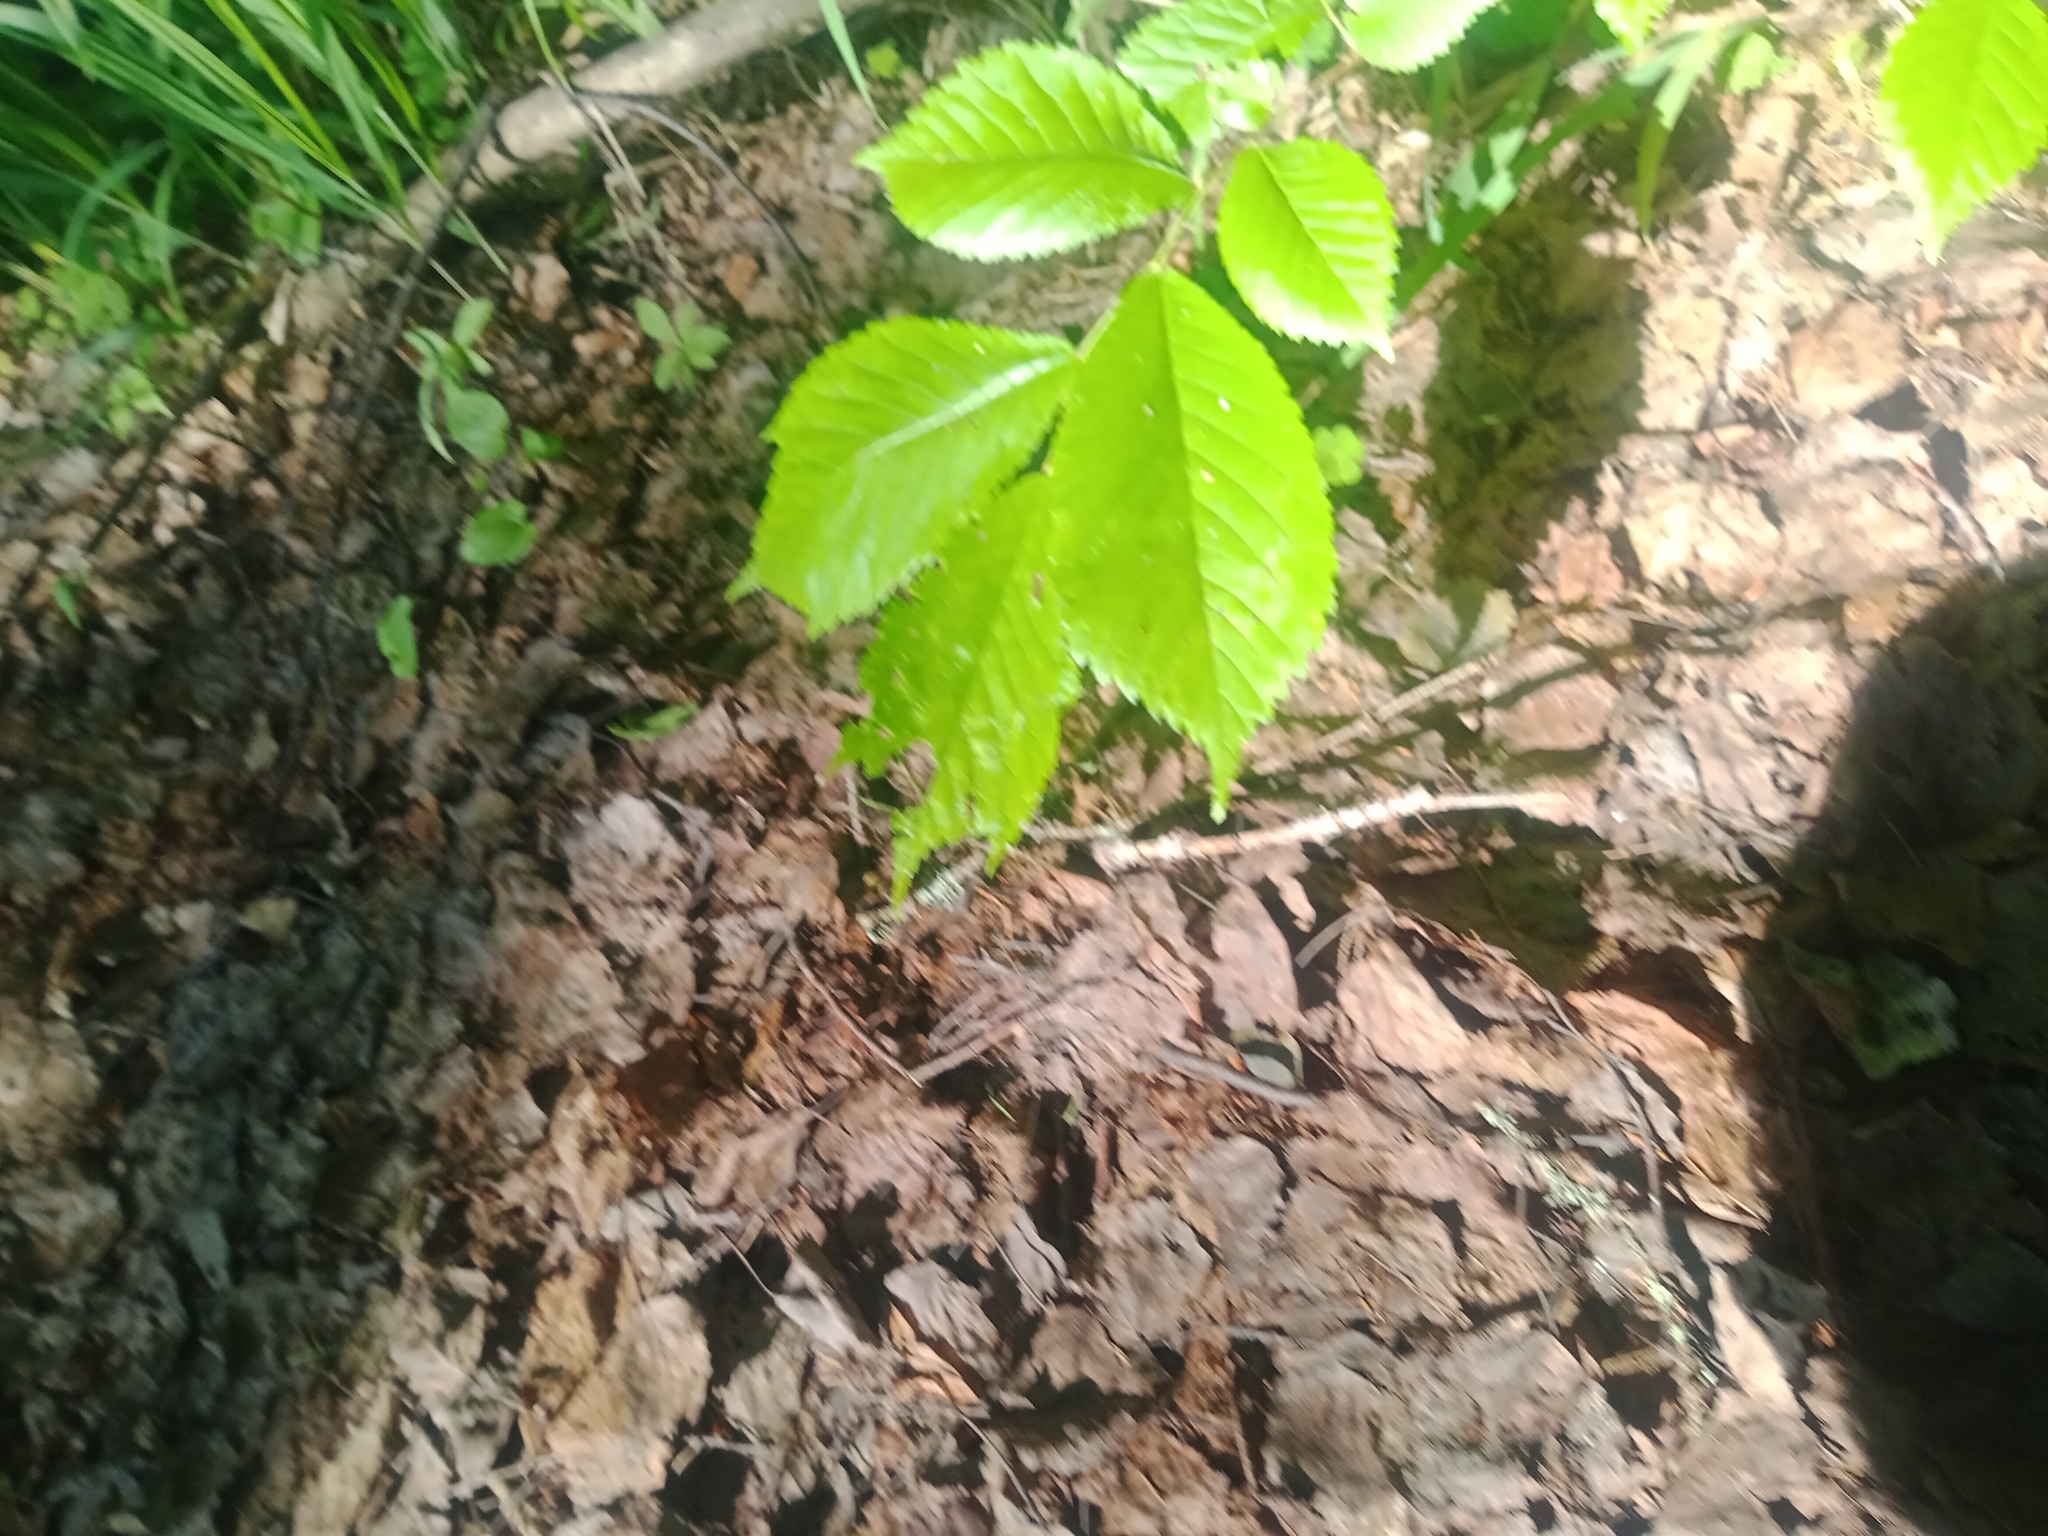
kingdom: Plantae
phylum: Tracheophyta
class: Magnoliopsida
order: Rosales
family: Ulmaceae
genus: Ulmus
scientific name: Ulmus glabra
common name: Wych elm
